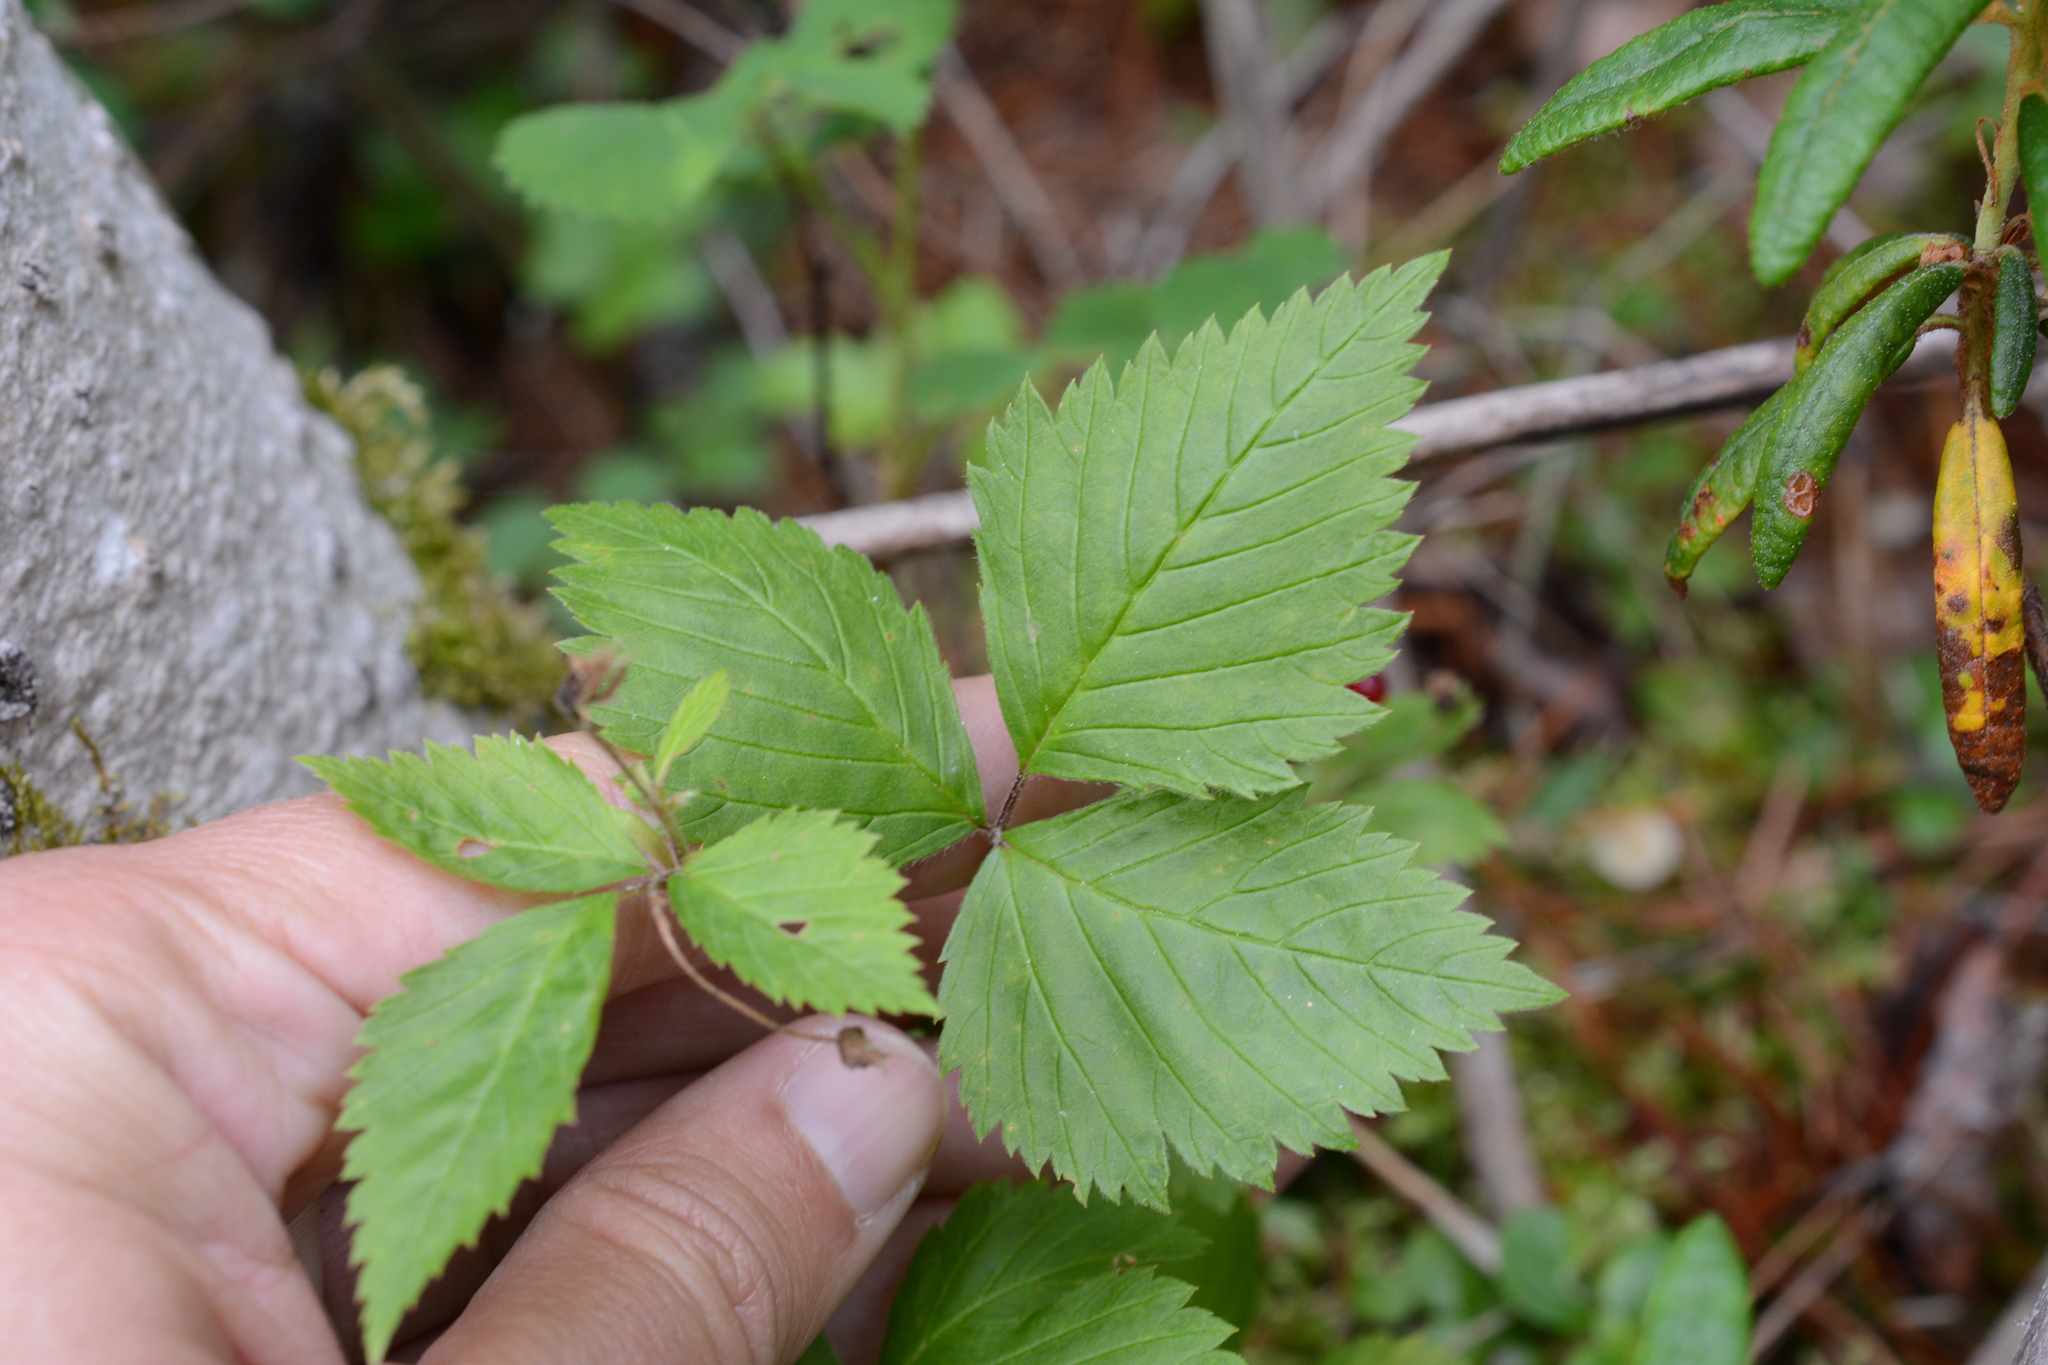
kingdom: Plantae
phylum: Tracheophyta
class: Magnoliopsida
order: Rosales
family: Rosaceae
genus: Rubus
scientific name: Rubus pubescens
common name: Dwarf raspberry
